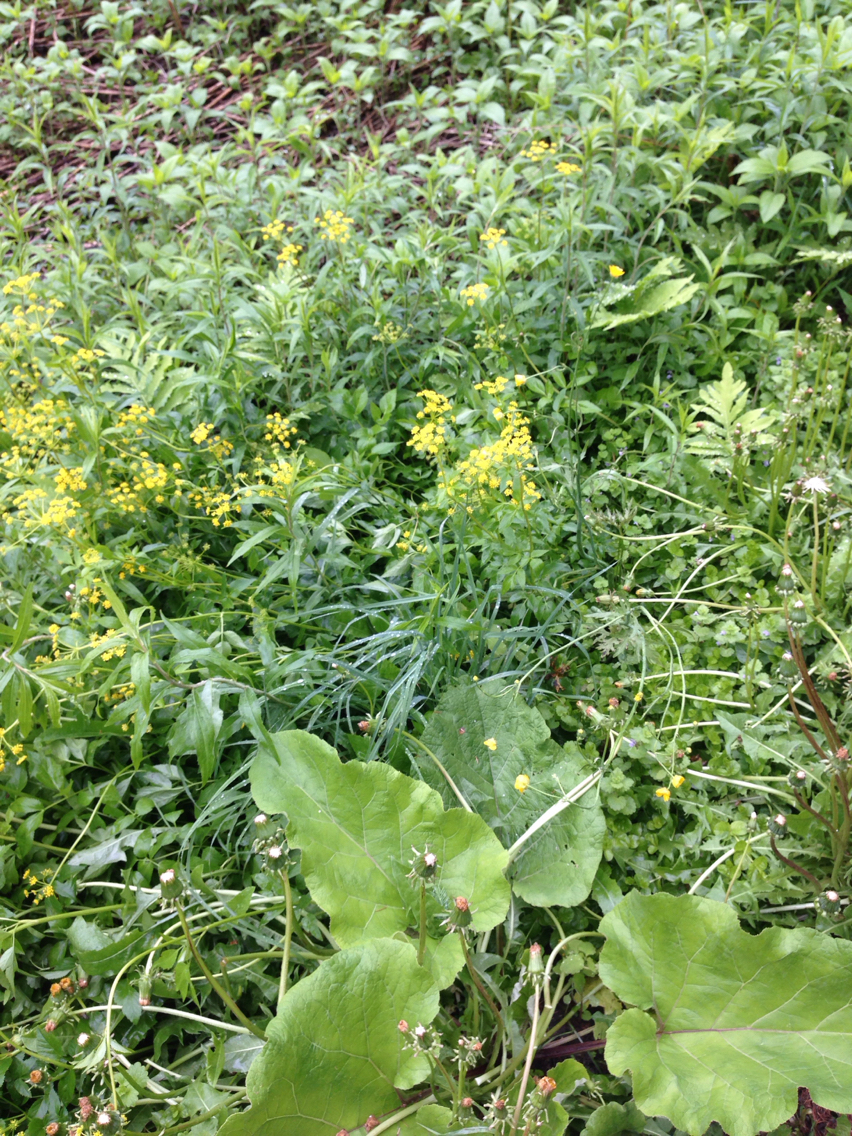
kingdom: Plantae
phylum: Tracheophyta
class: Magnoliopsida
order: Apiales
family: Apiaceae
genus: Zizia
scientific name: Zizia aurea
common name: Golden alexanders
